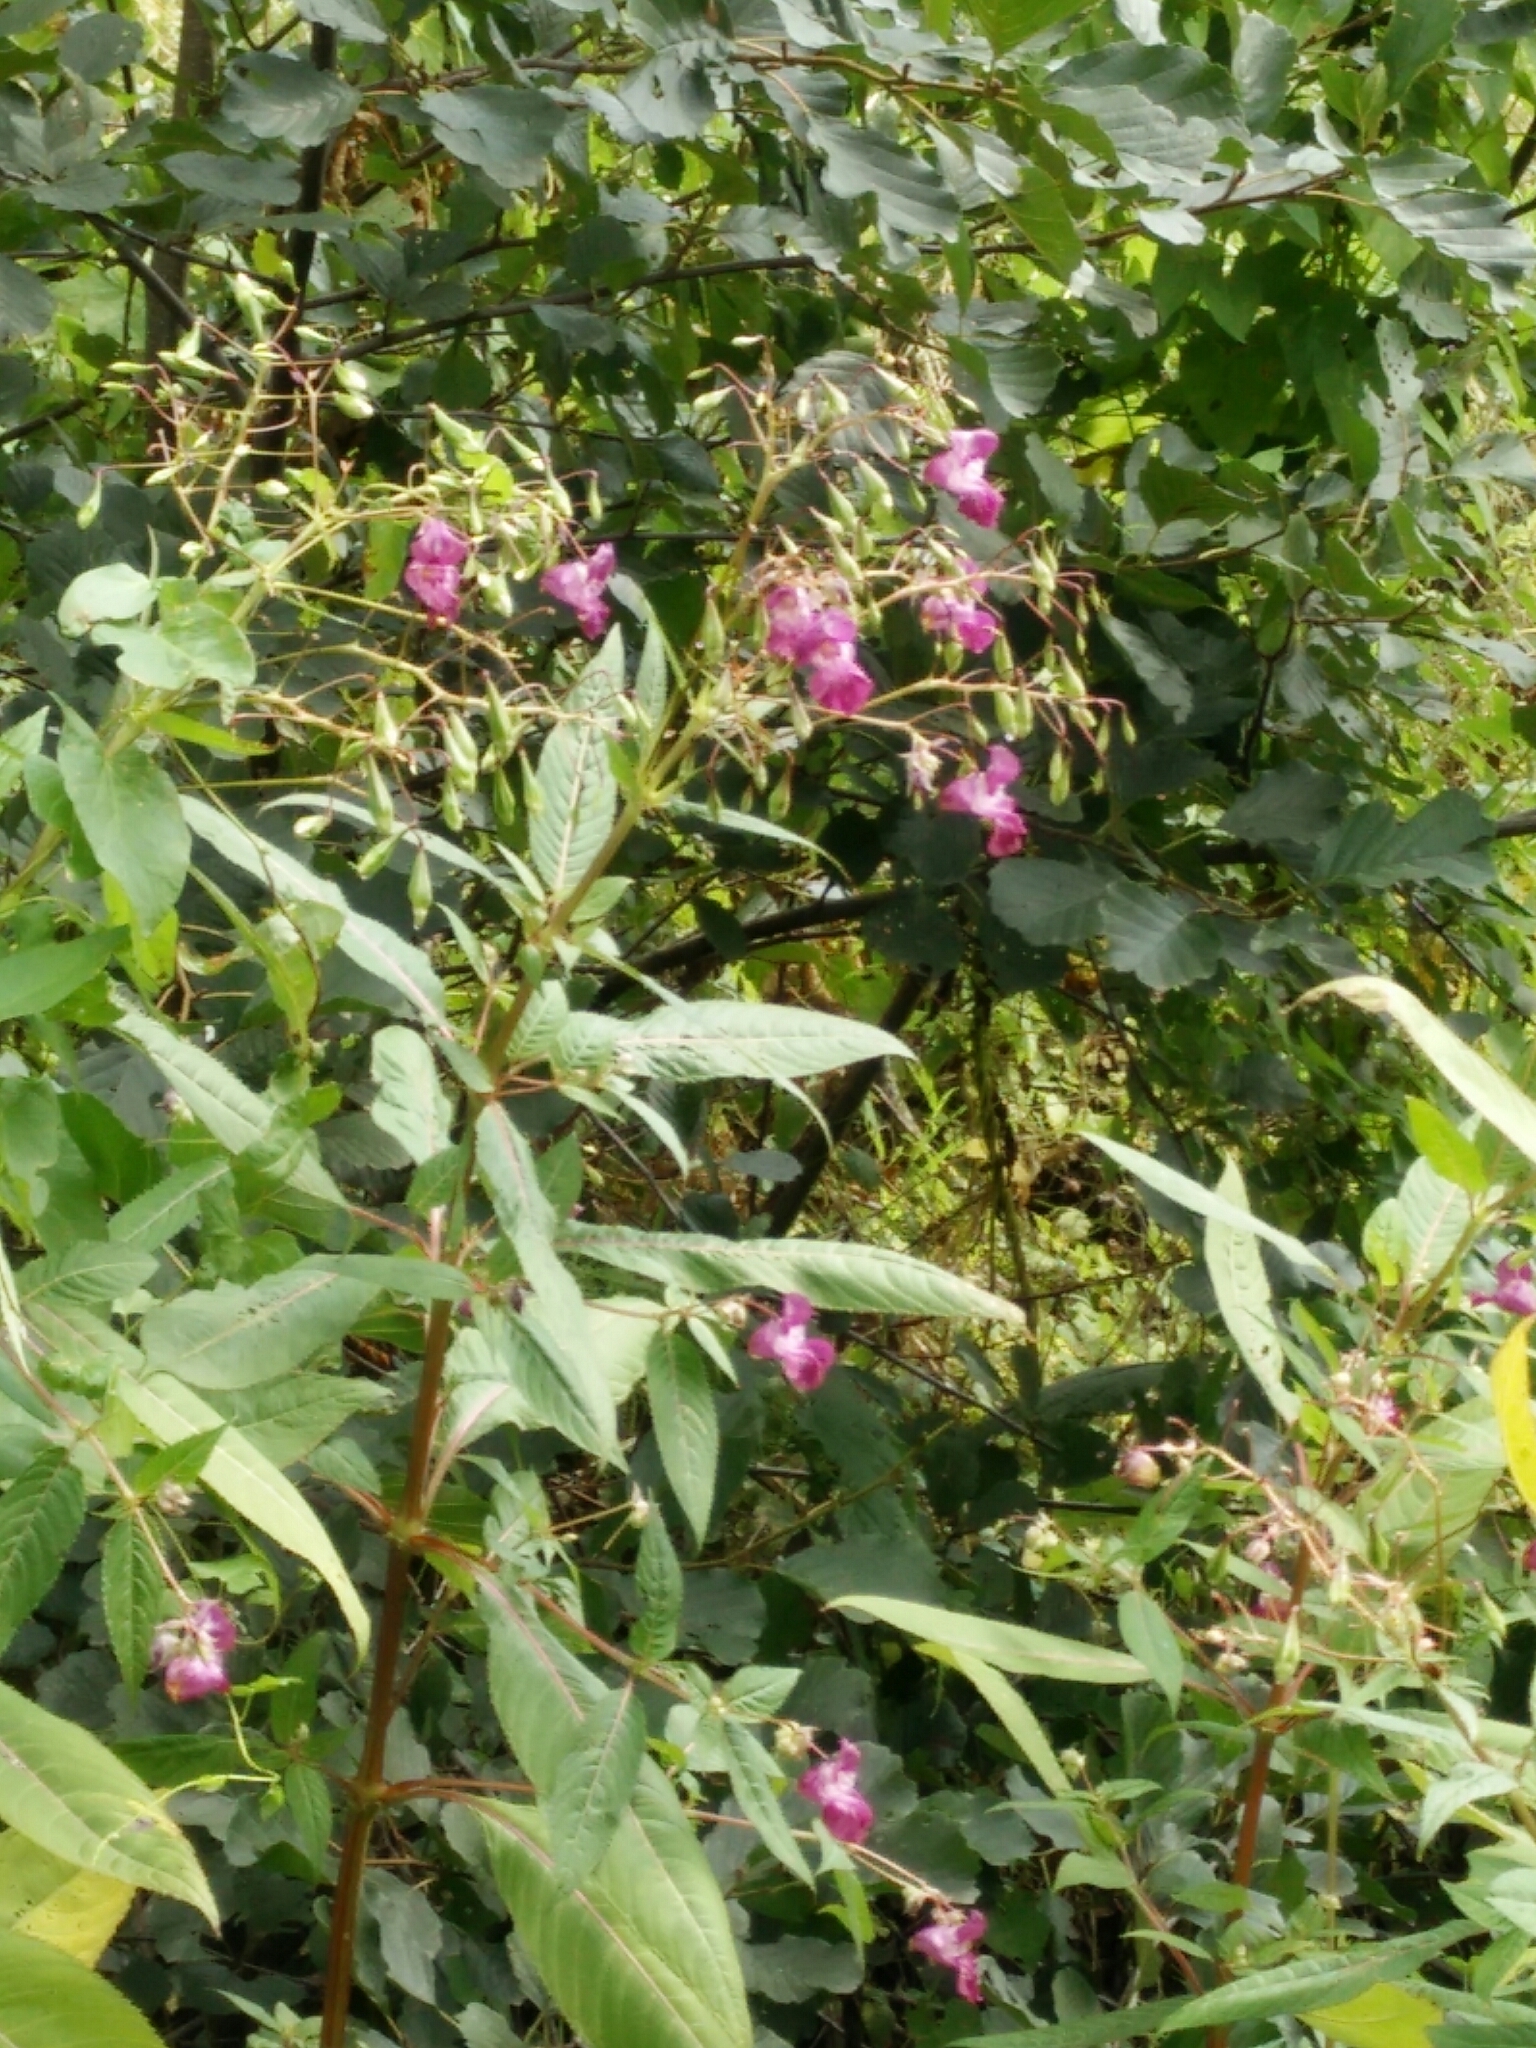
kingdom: Plantae
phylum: Tracheophyta
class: Magnoliopsida
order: Ericales
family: Balsaminaceae
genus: Impatiens
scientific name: Impatiens glandulifera
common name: Himalayan balsam
